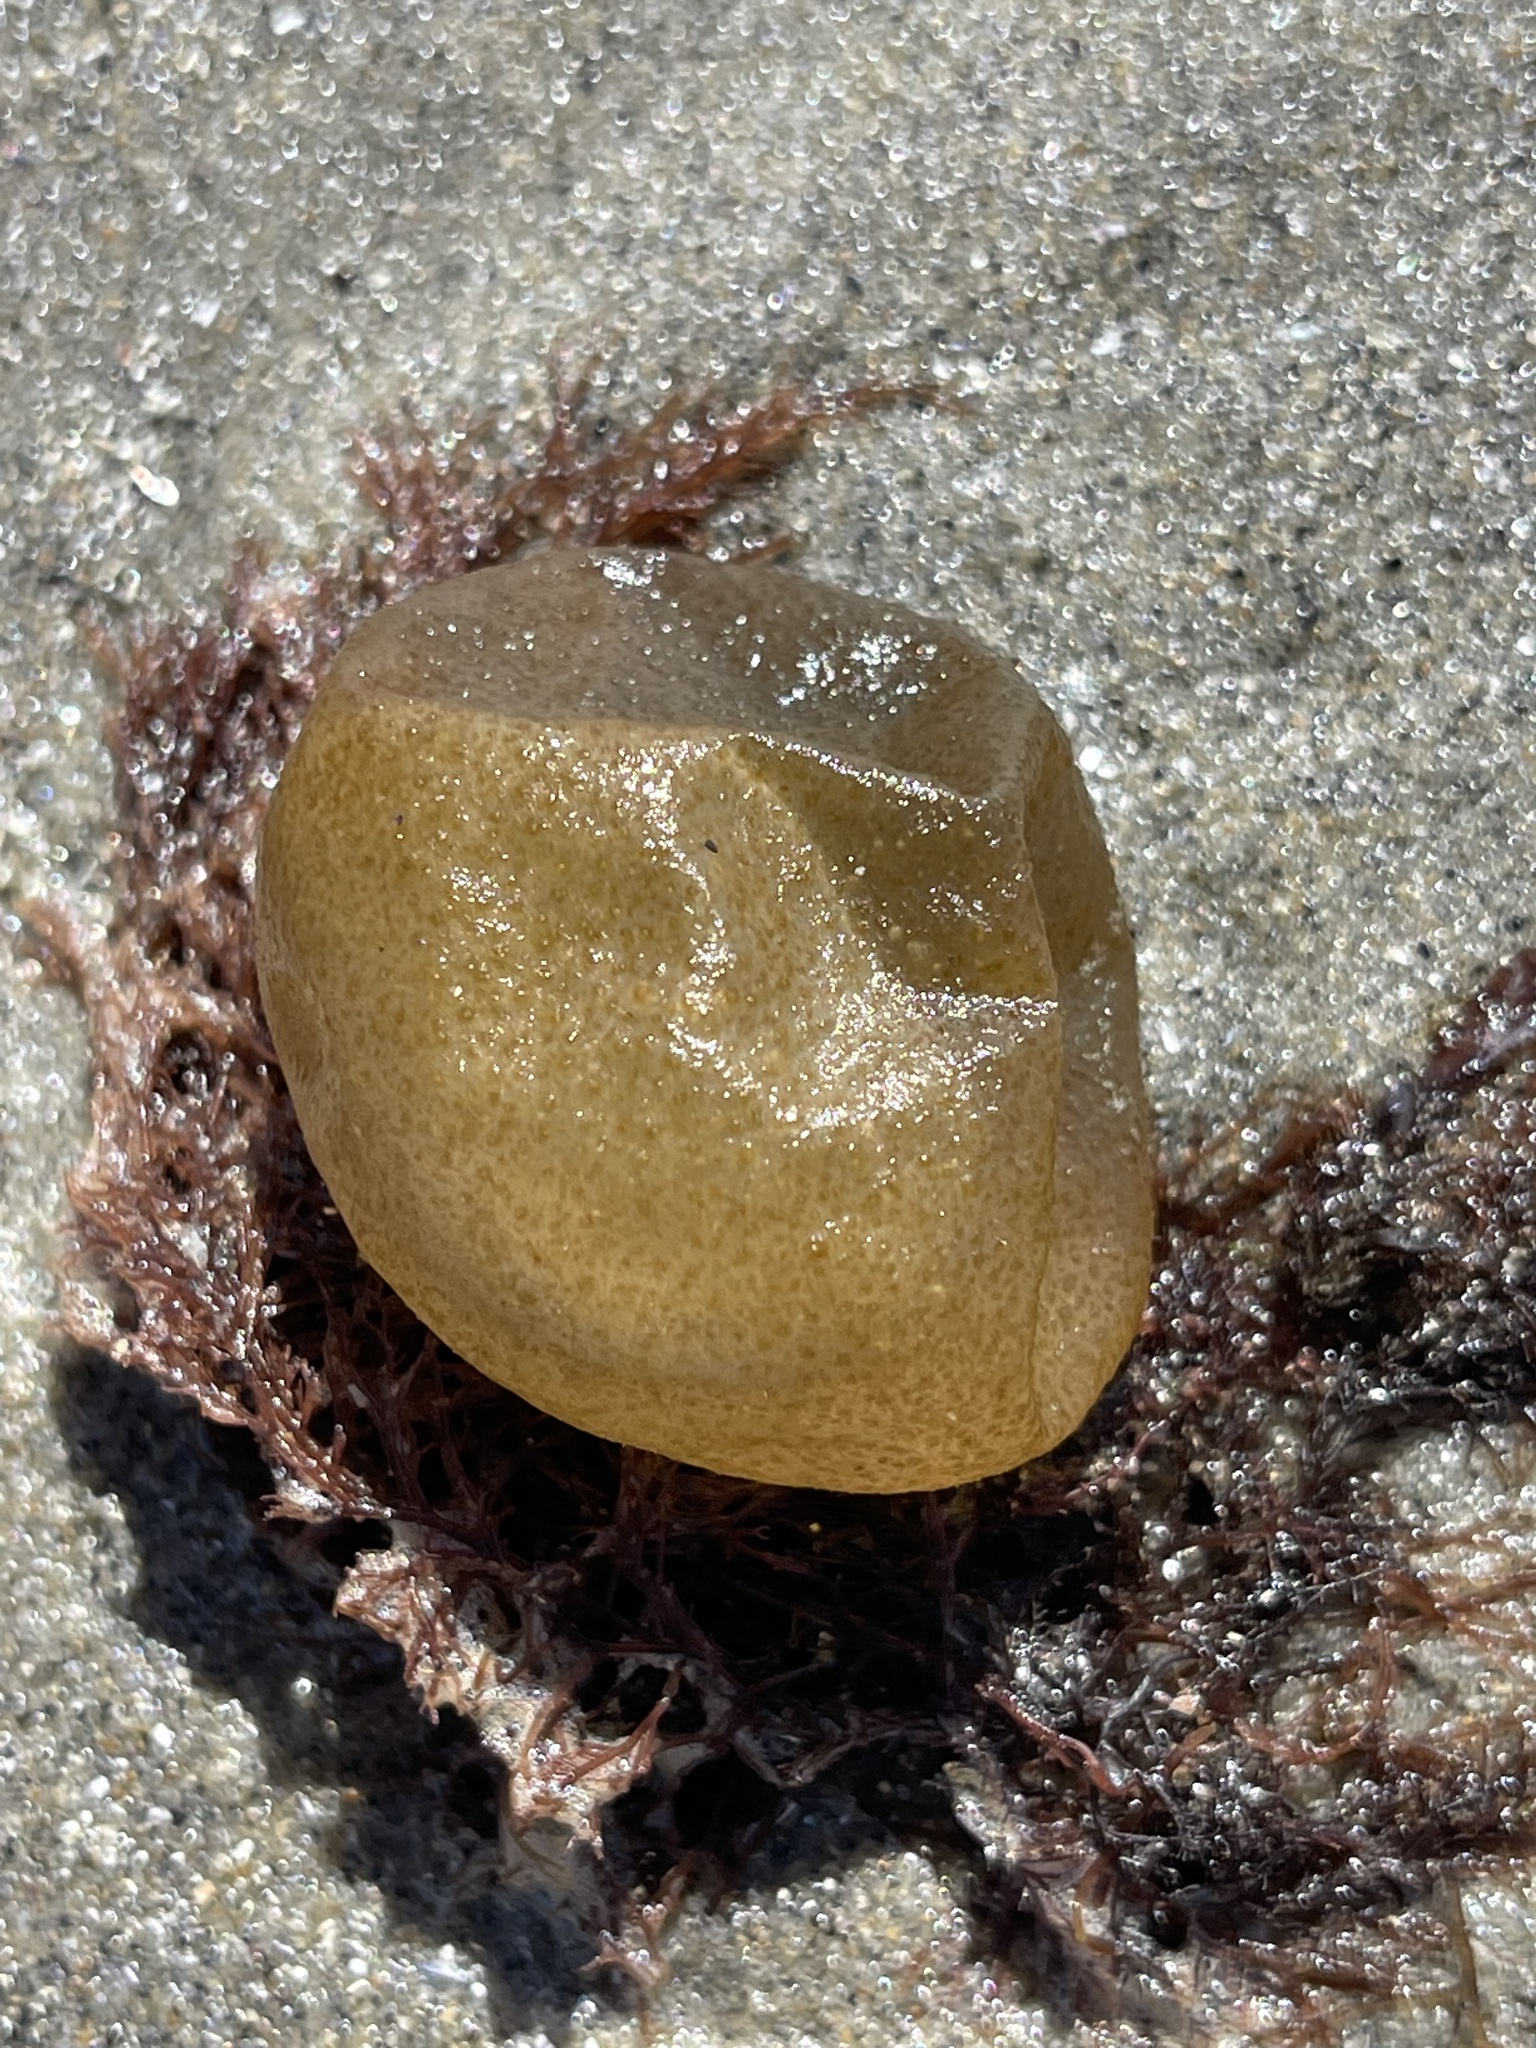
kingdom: Chromista
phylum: Ochrophyta
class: Phaeophyceae
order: Scytosiphonales
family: Scytosiphonaceae
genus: Colpomenia
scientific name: Colpomenia peregrina
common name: Oyster thief
